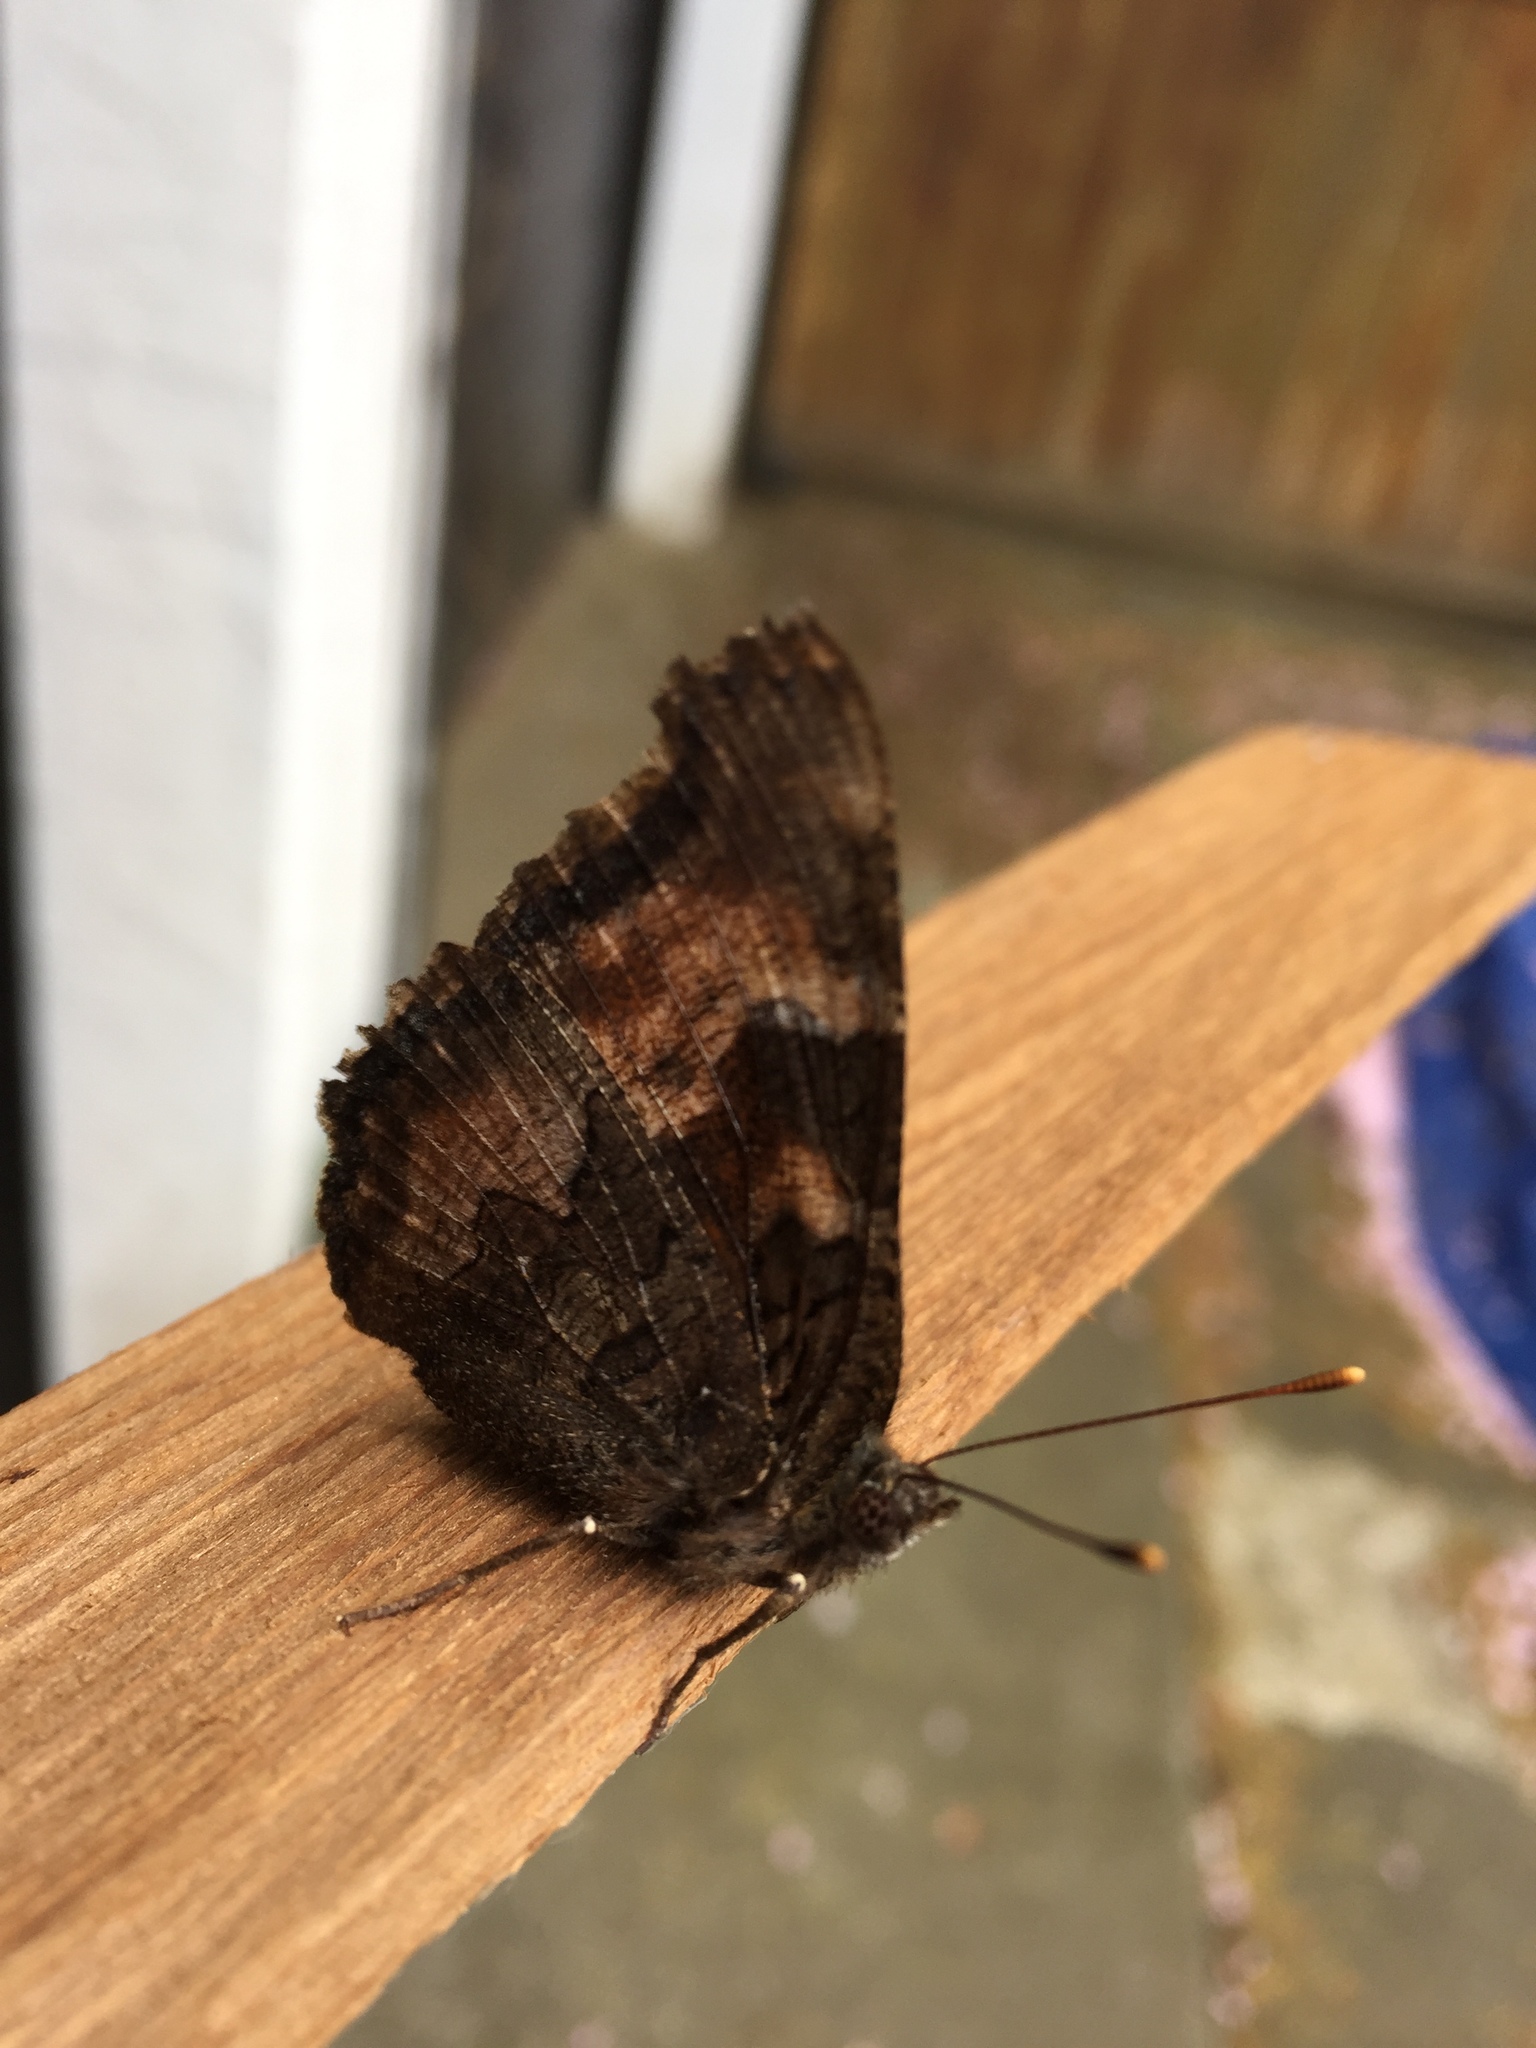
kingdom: Animalia
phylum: Arthropoda
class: Insecta
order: Lepidoptera
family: Nymphalidae
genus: Nymphalis
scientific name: Nymphalis californica
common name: California tortoiseshell
